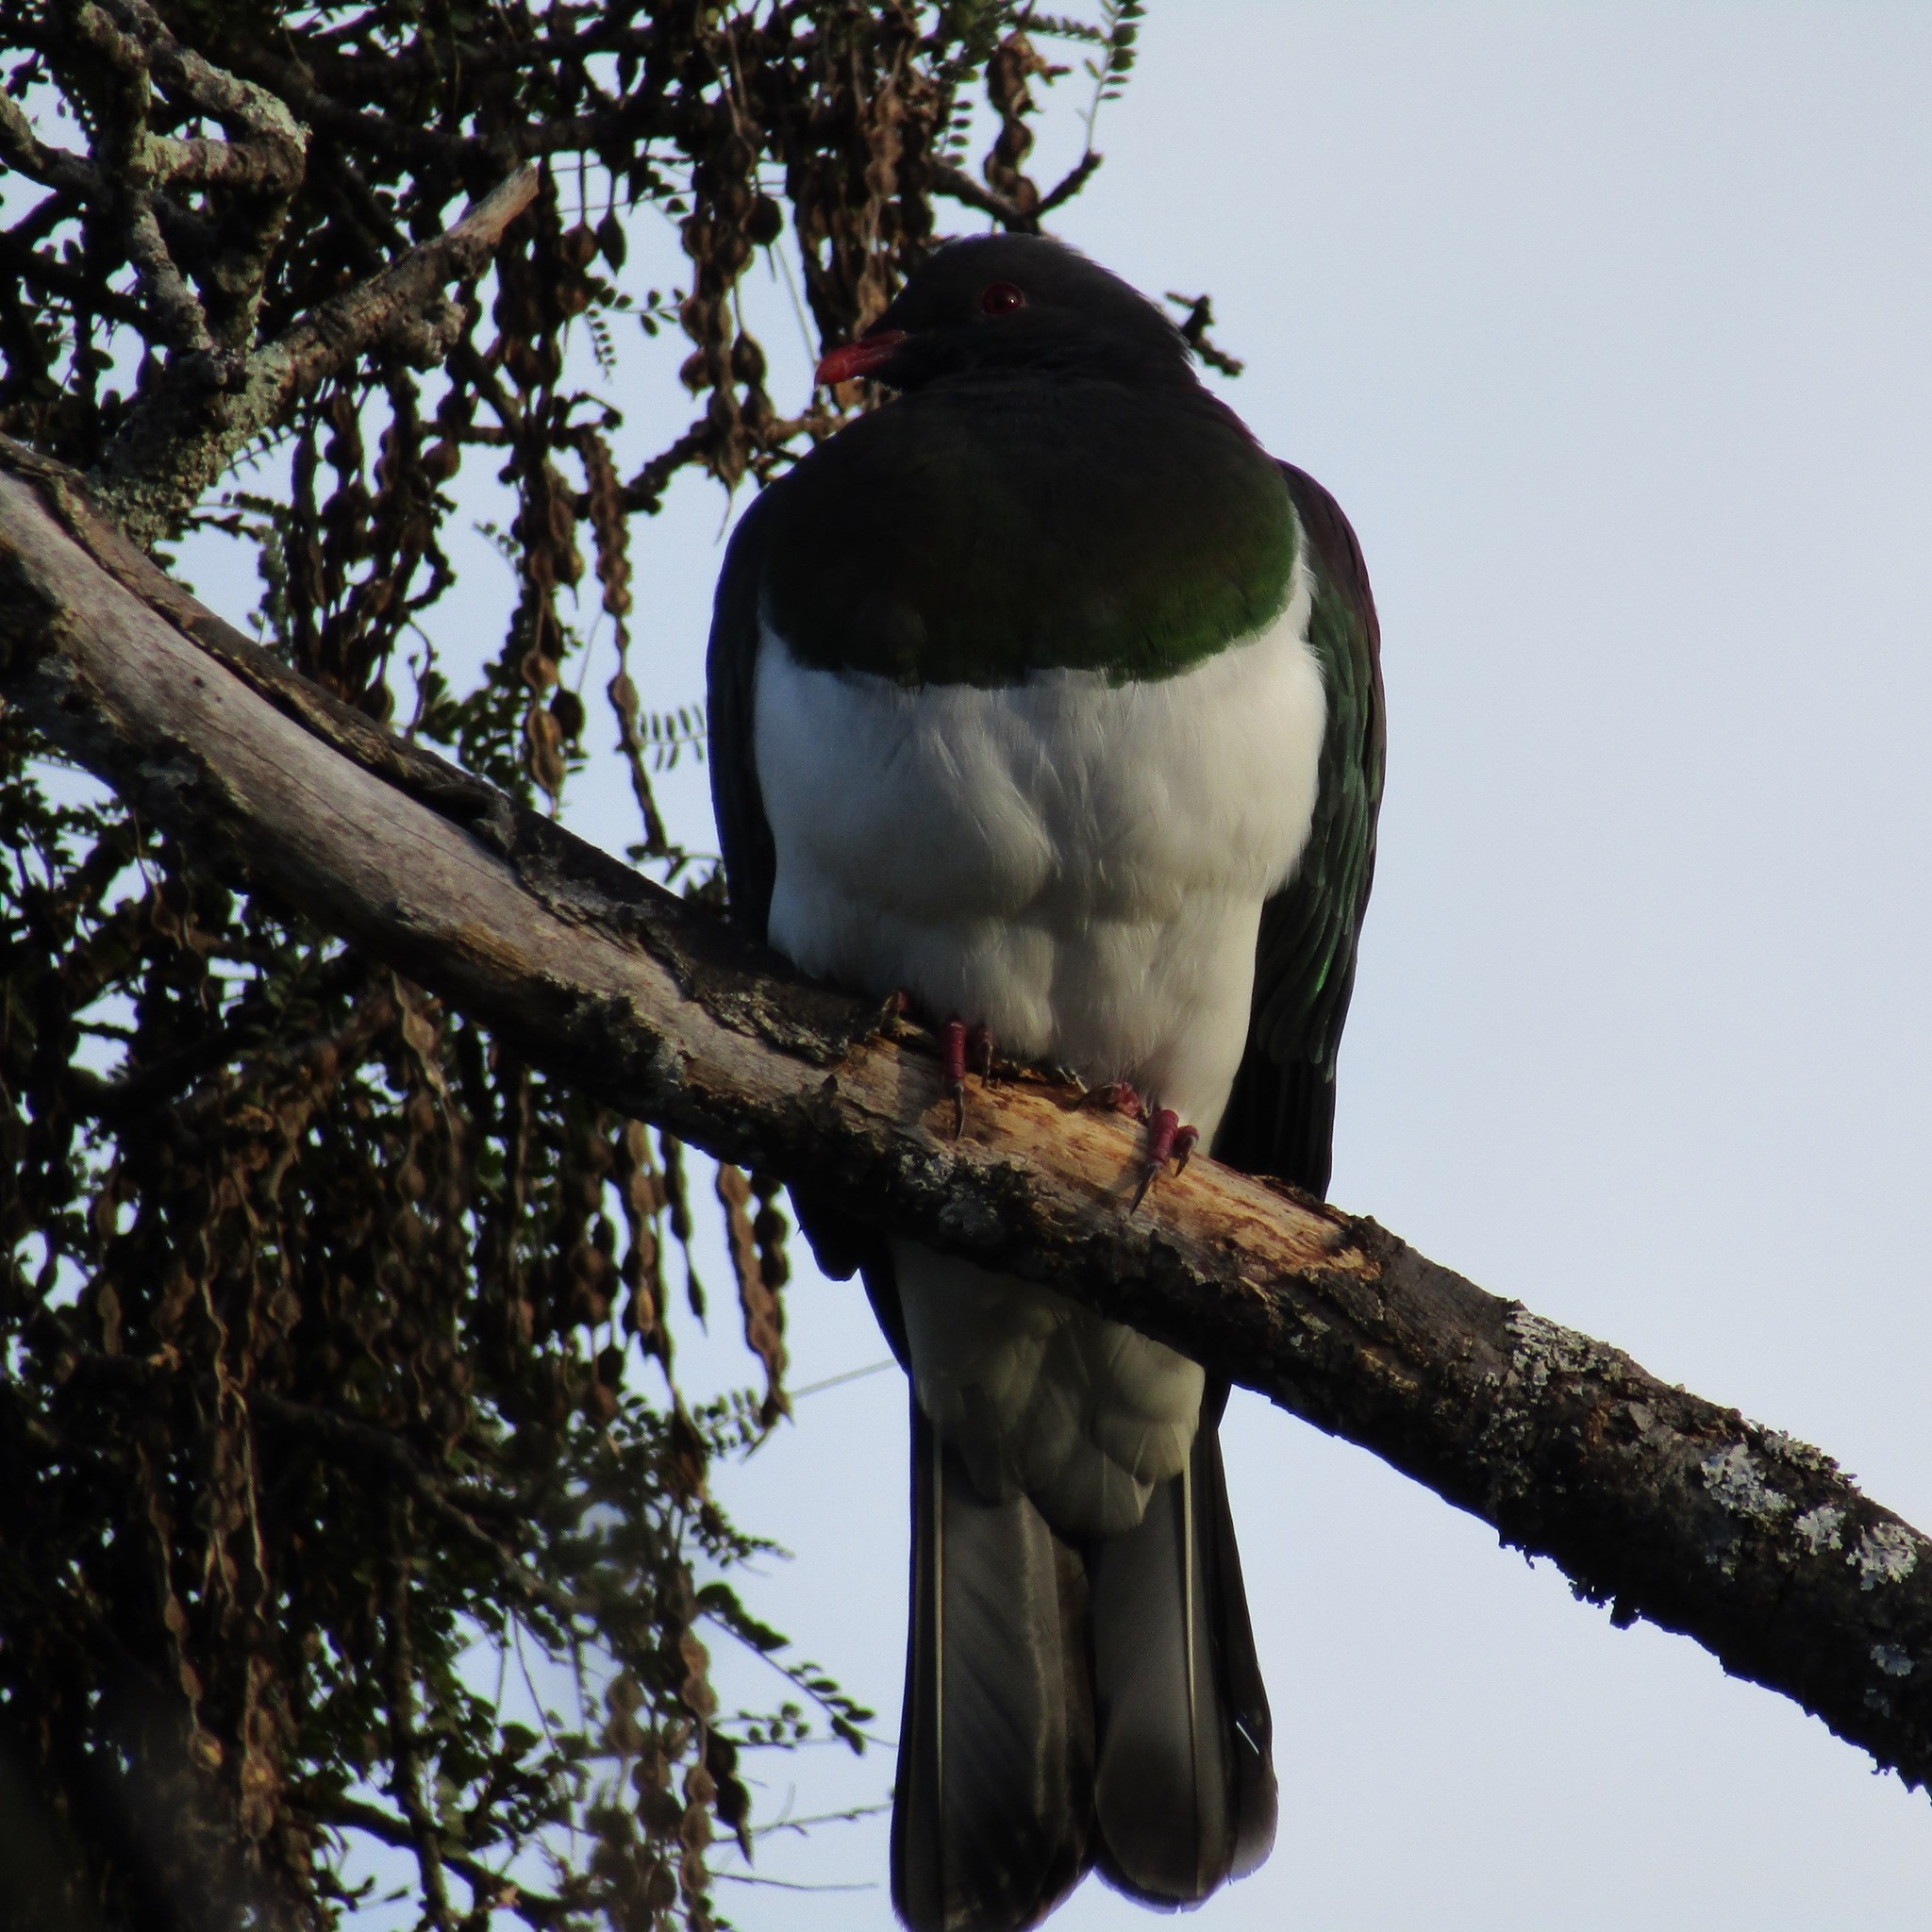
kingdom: Animalia
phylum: Chordata
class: Aves
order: Columbiformes
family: Columbidae
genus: Hemiphaga
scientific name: Hemiphaga novaeseelandiae
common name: New zealand pigeon
